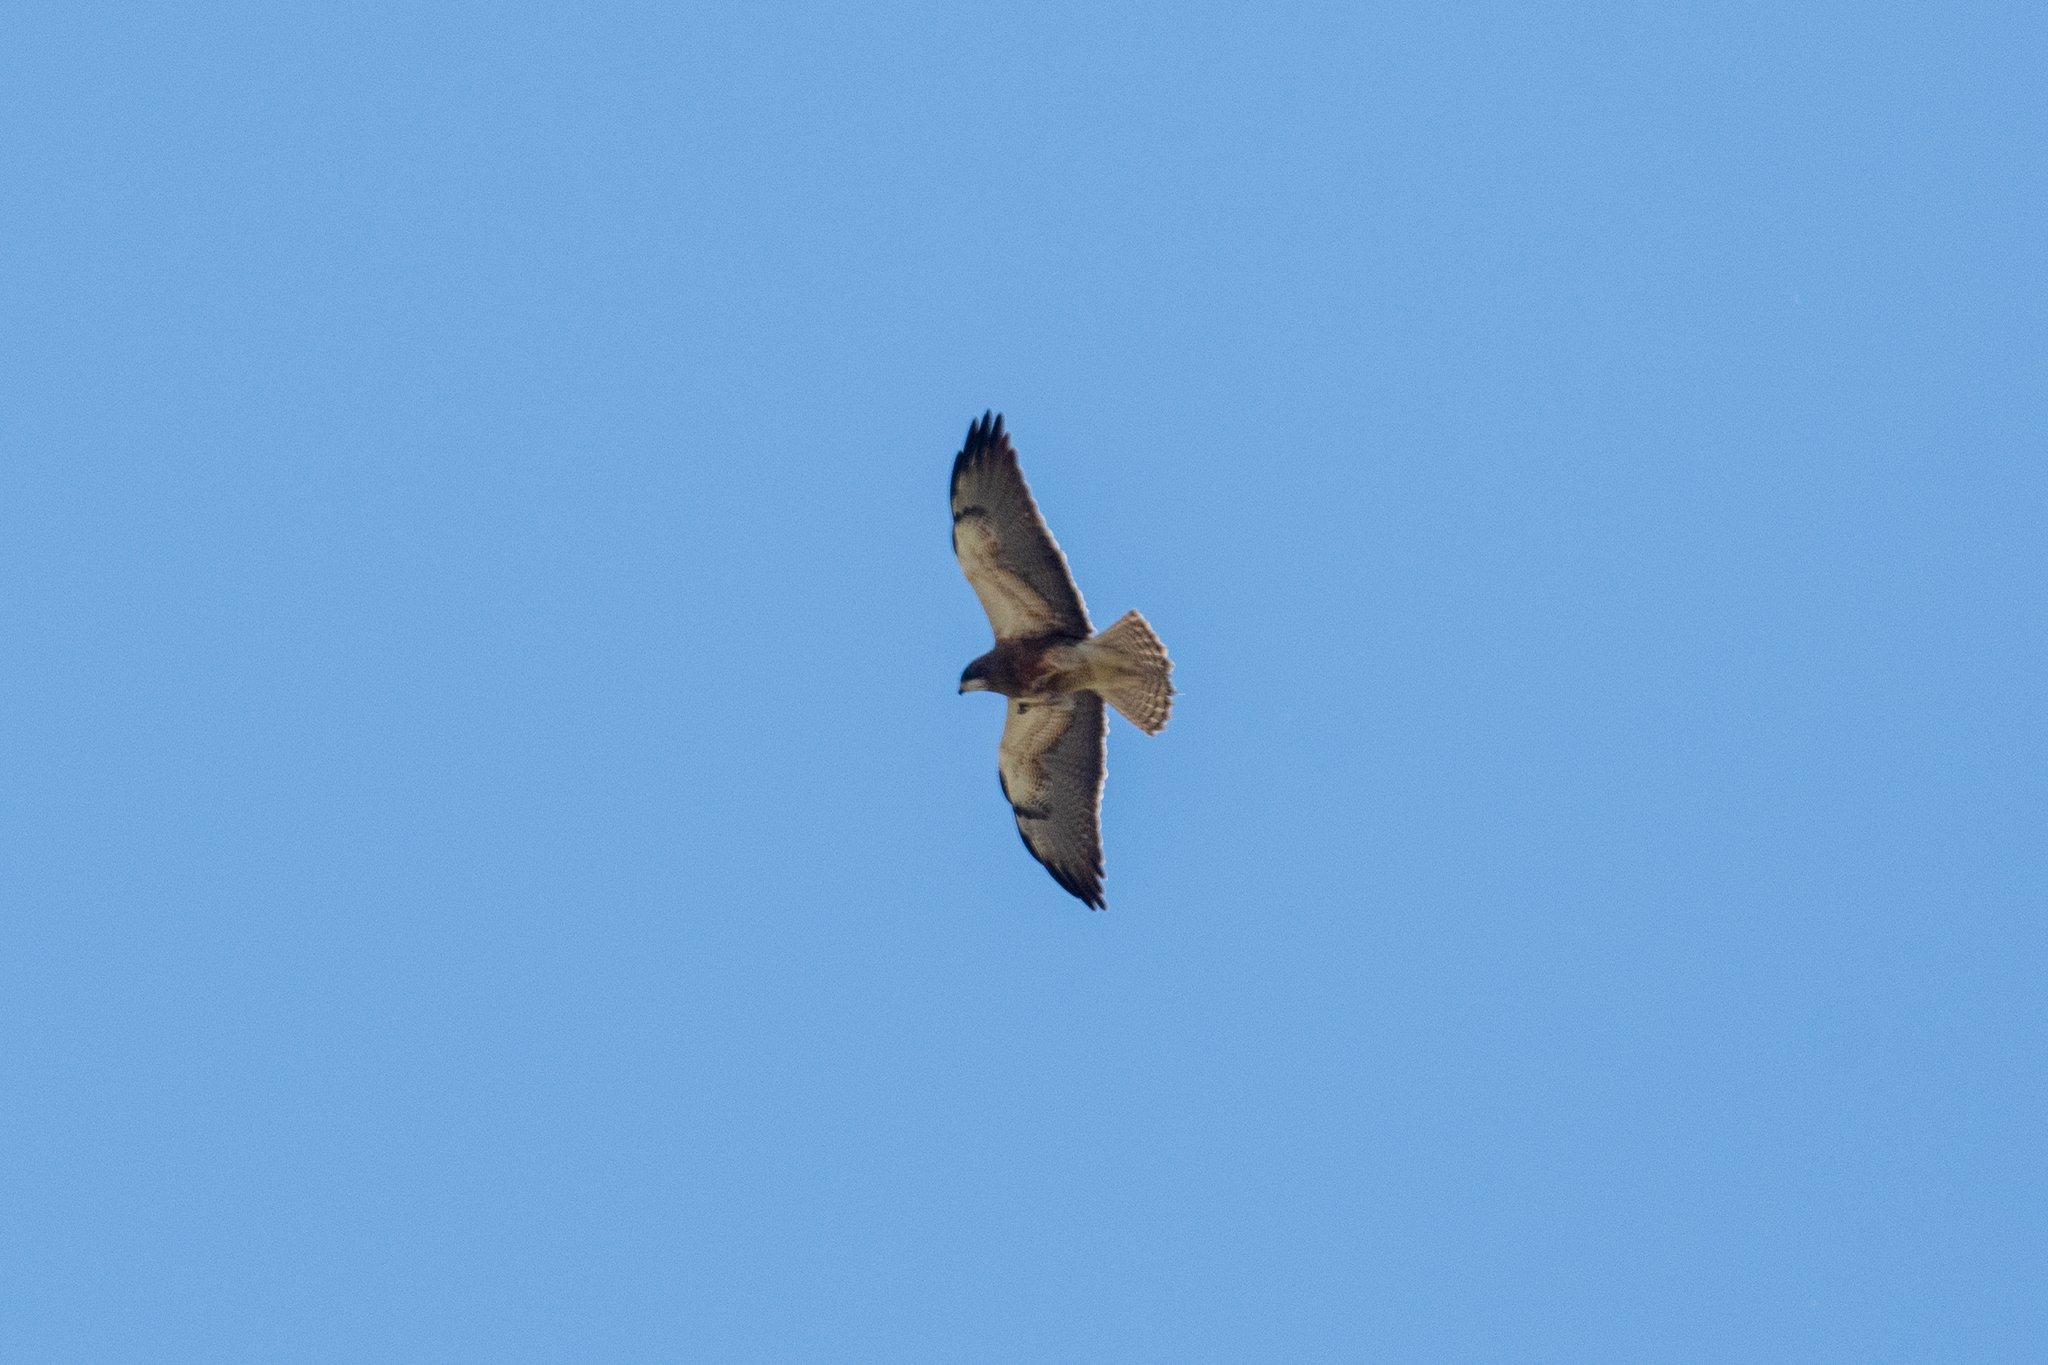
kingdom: Animalia
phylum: Chordata
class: Aves
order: Accipitriformes
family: Accipitridae
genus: Buteo
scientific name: Buteo swainsoni
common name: Swainson's hawk
